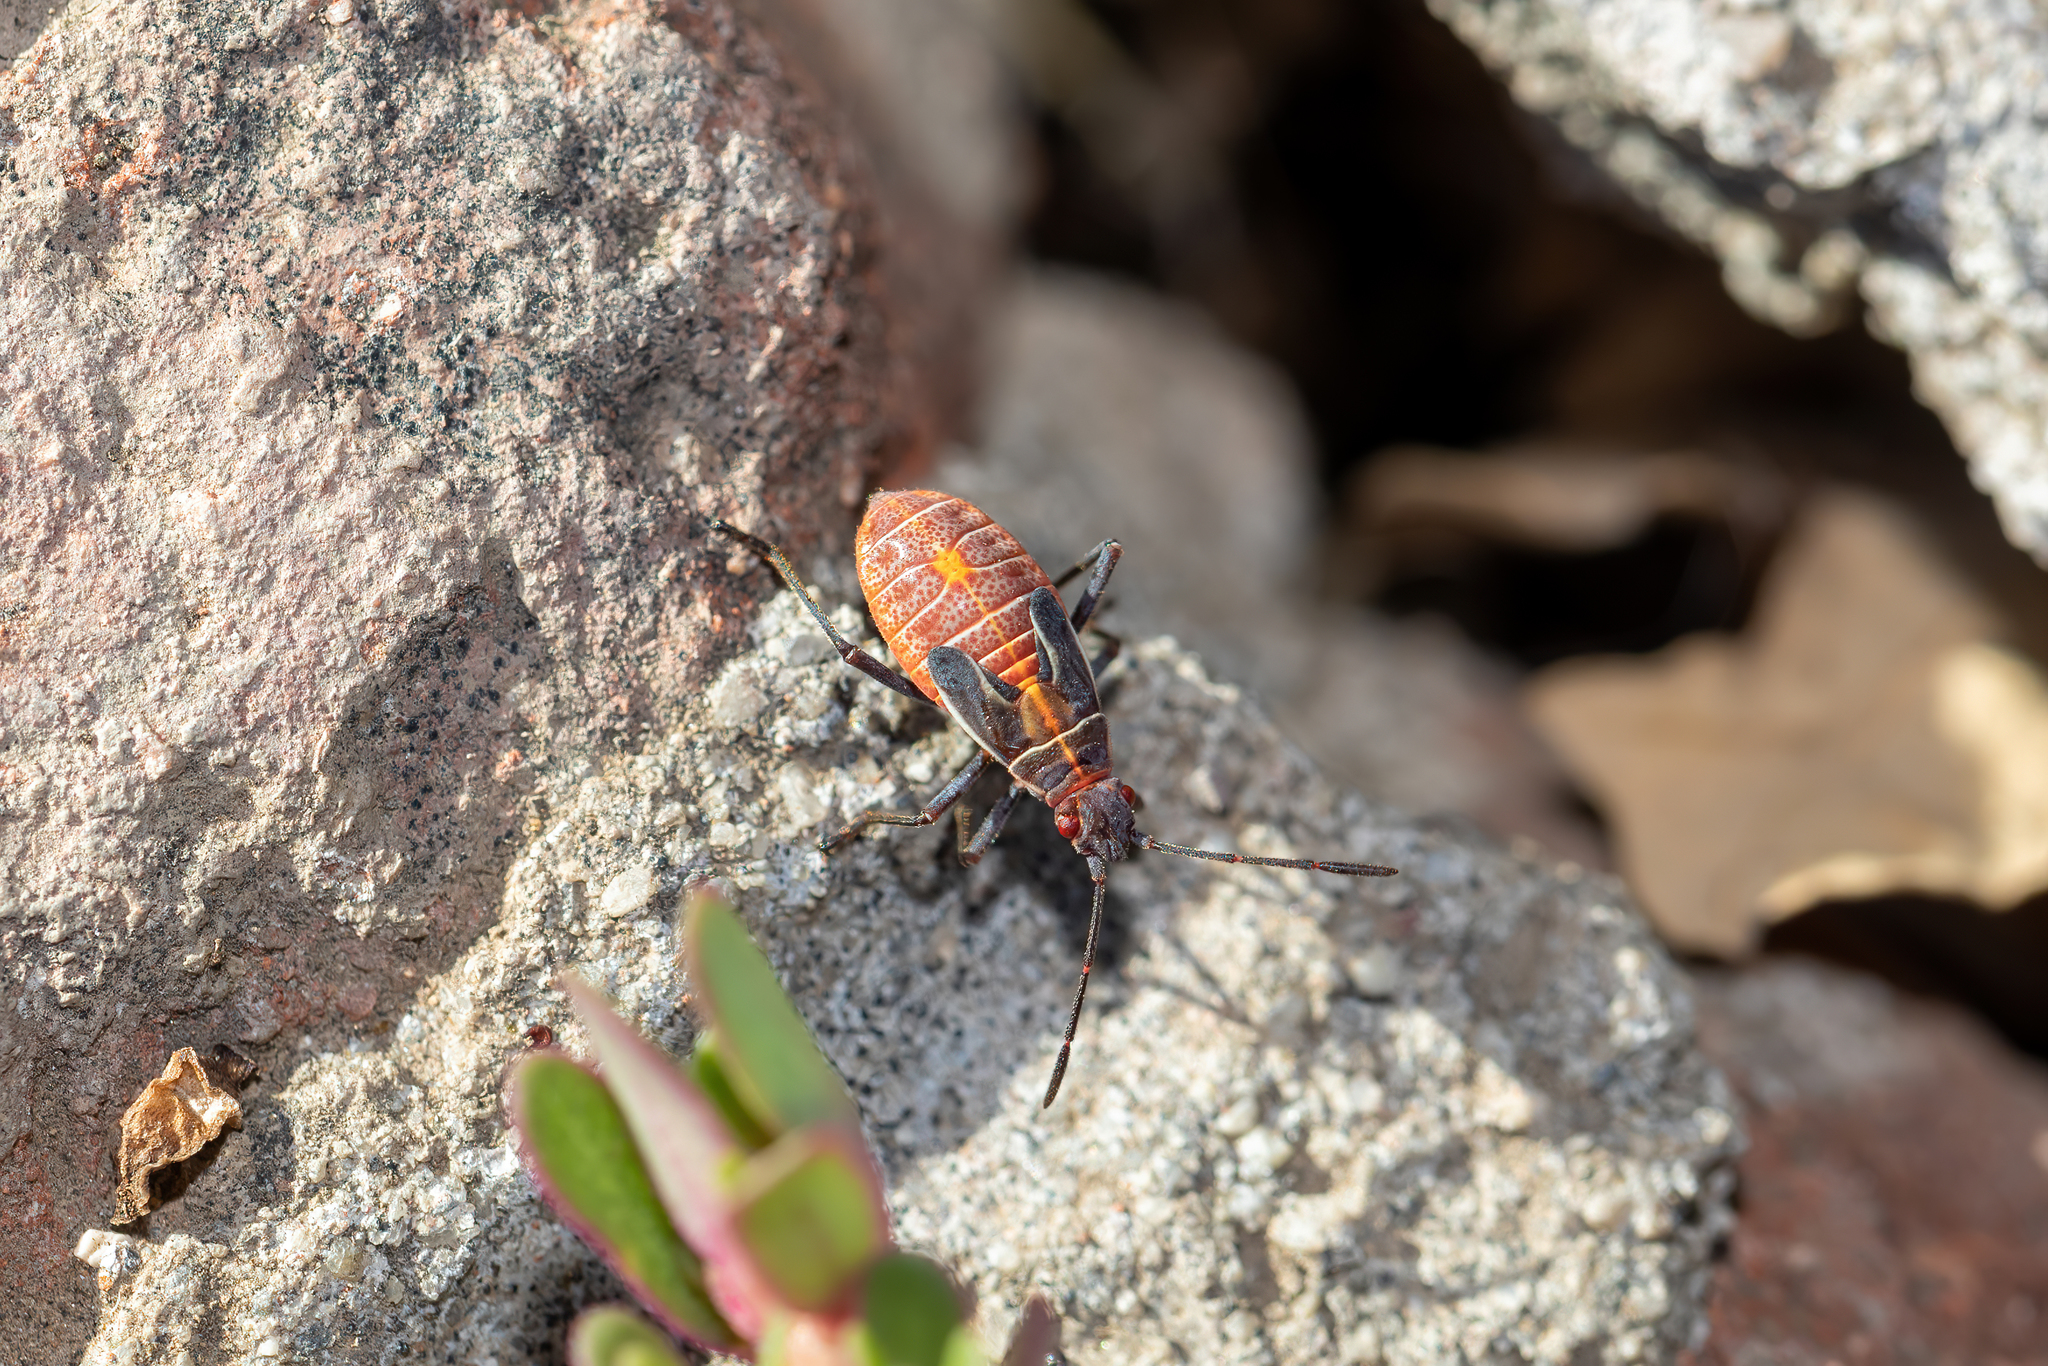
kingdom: Animalia
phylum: Arthropoda
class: Insecta
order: Hemiptera
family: Rhopalidae
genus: Boisea
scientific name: Boisea rubrolineata
